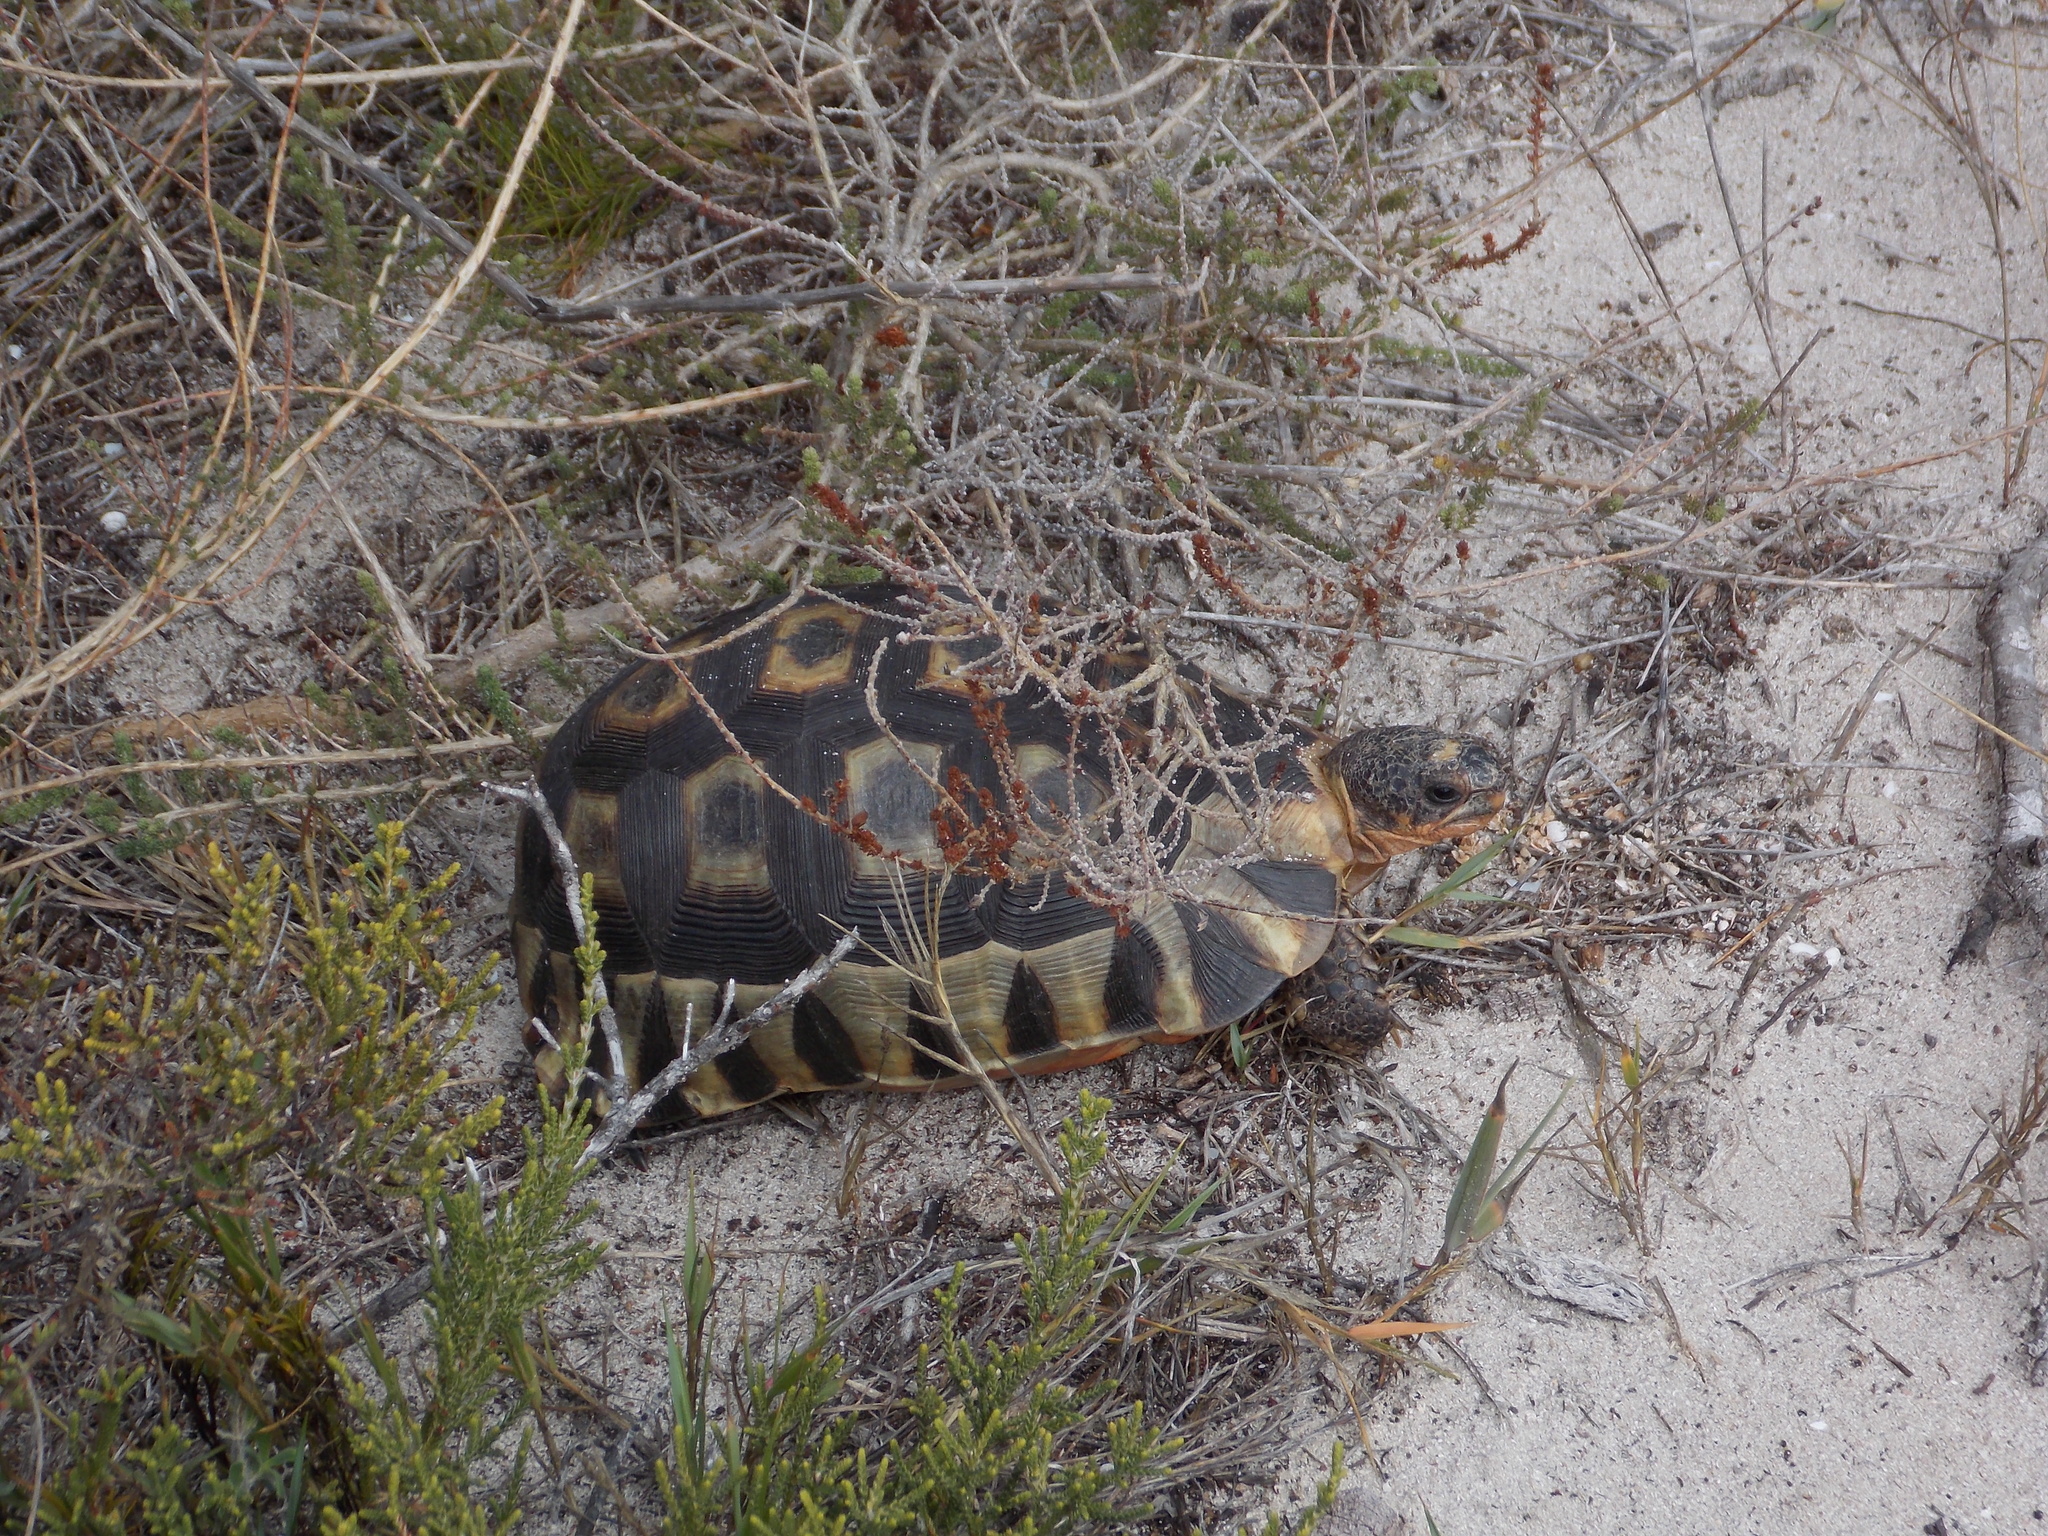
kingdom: Animalia
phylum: Chordata
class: Testudines
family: Testudinidae
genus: Chersina
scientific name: Chersina angulata
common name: South african bowsprit tortoise
